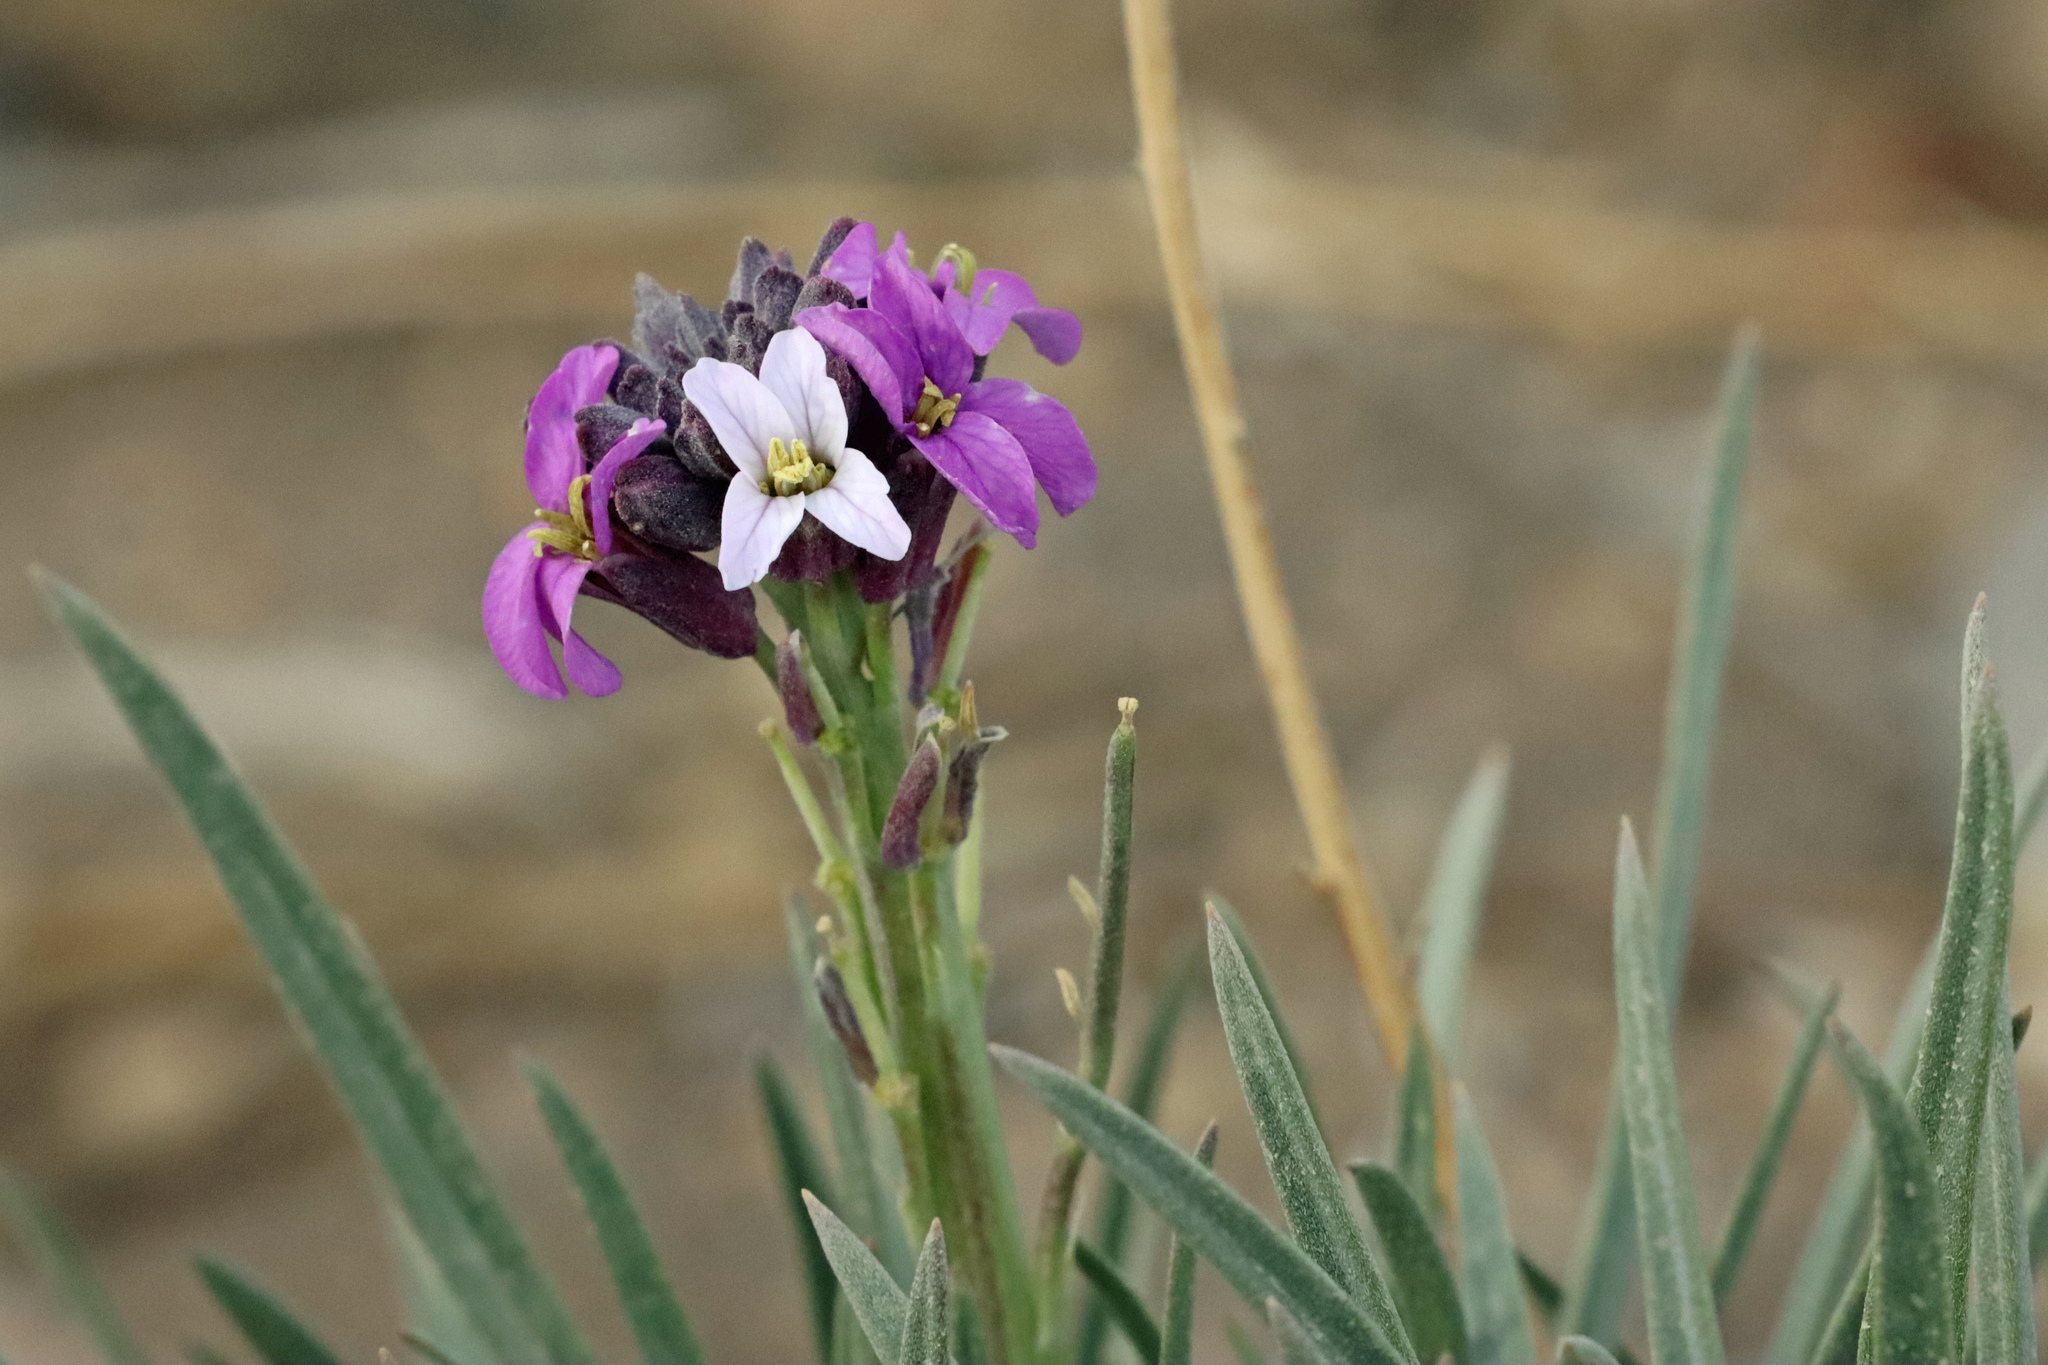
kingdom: Plantae
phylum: Tracheophyta
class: Magnoliopsida
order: Brassicales
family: Brassicaceae
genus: Erysimum
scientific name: Erysimum scoparium
